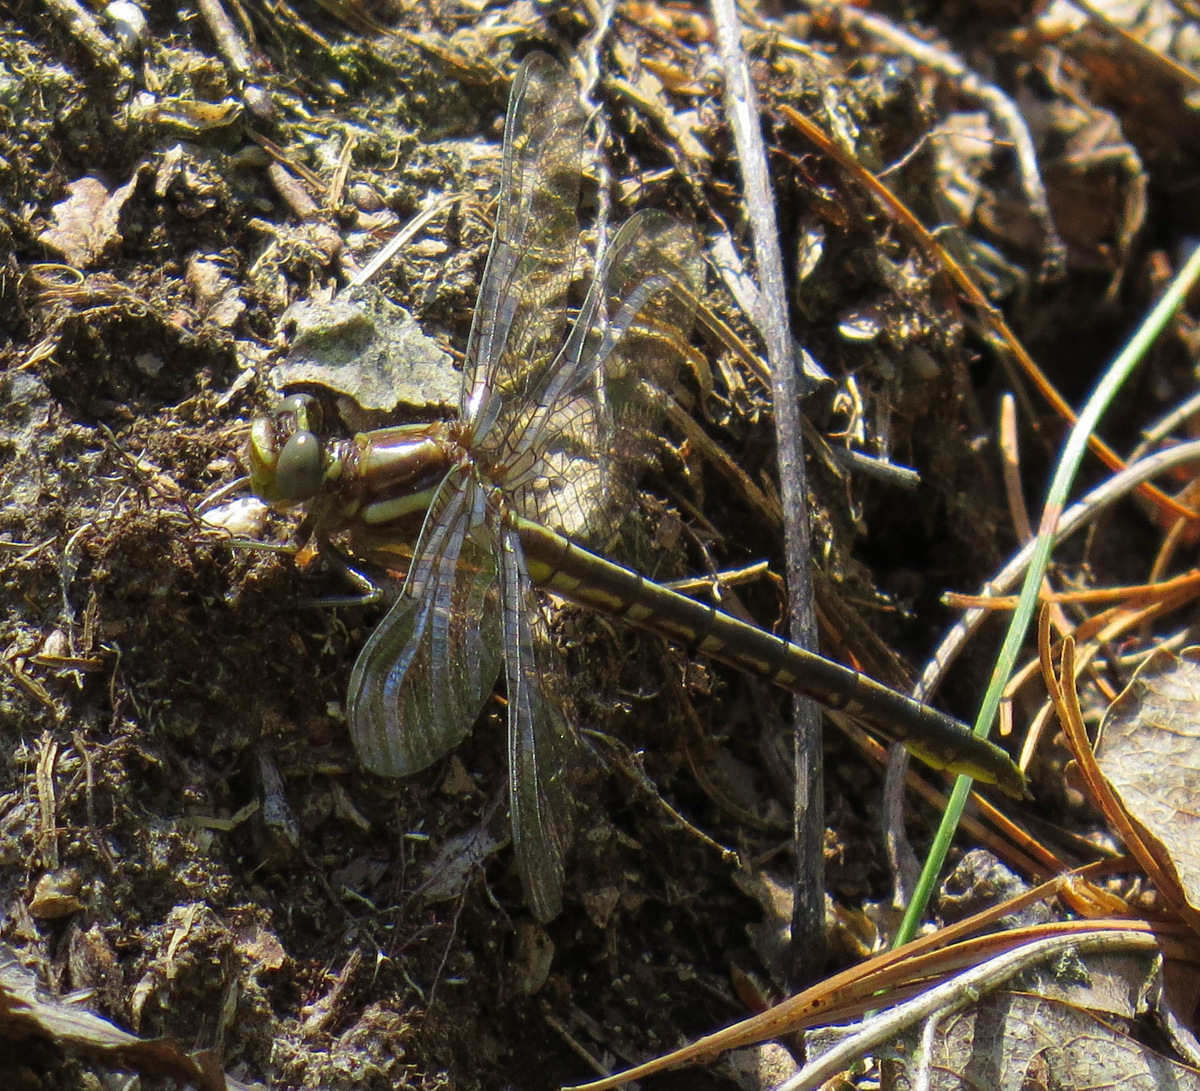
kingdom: Animalia
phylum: Arthropoda
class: Insecta
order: Odonata
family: Gomphidae
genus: Phanogomphus
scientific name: Phanogomphus exilis
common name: Lancet clubtail
